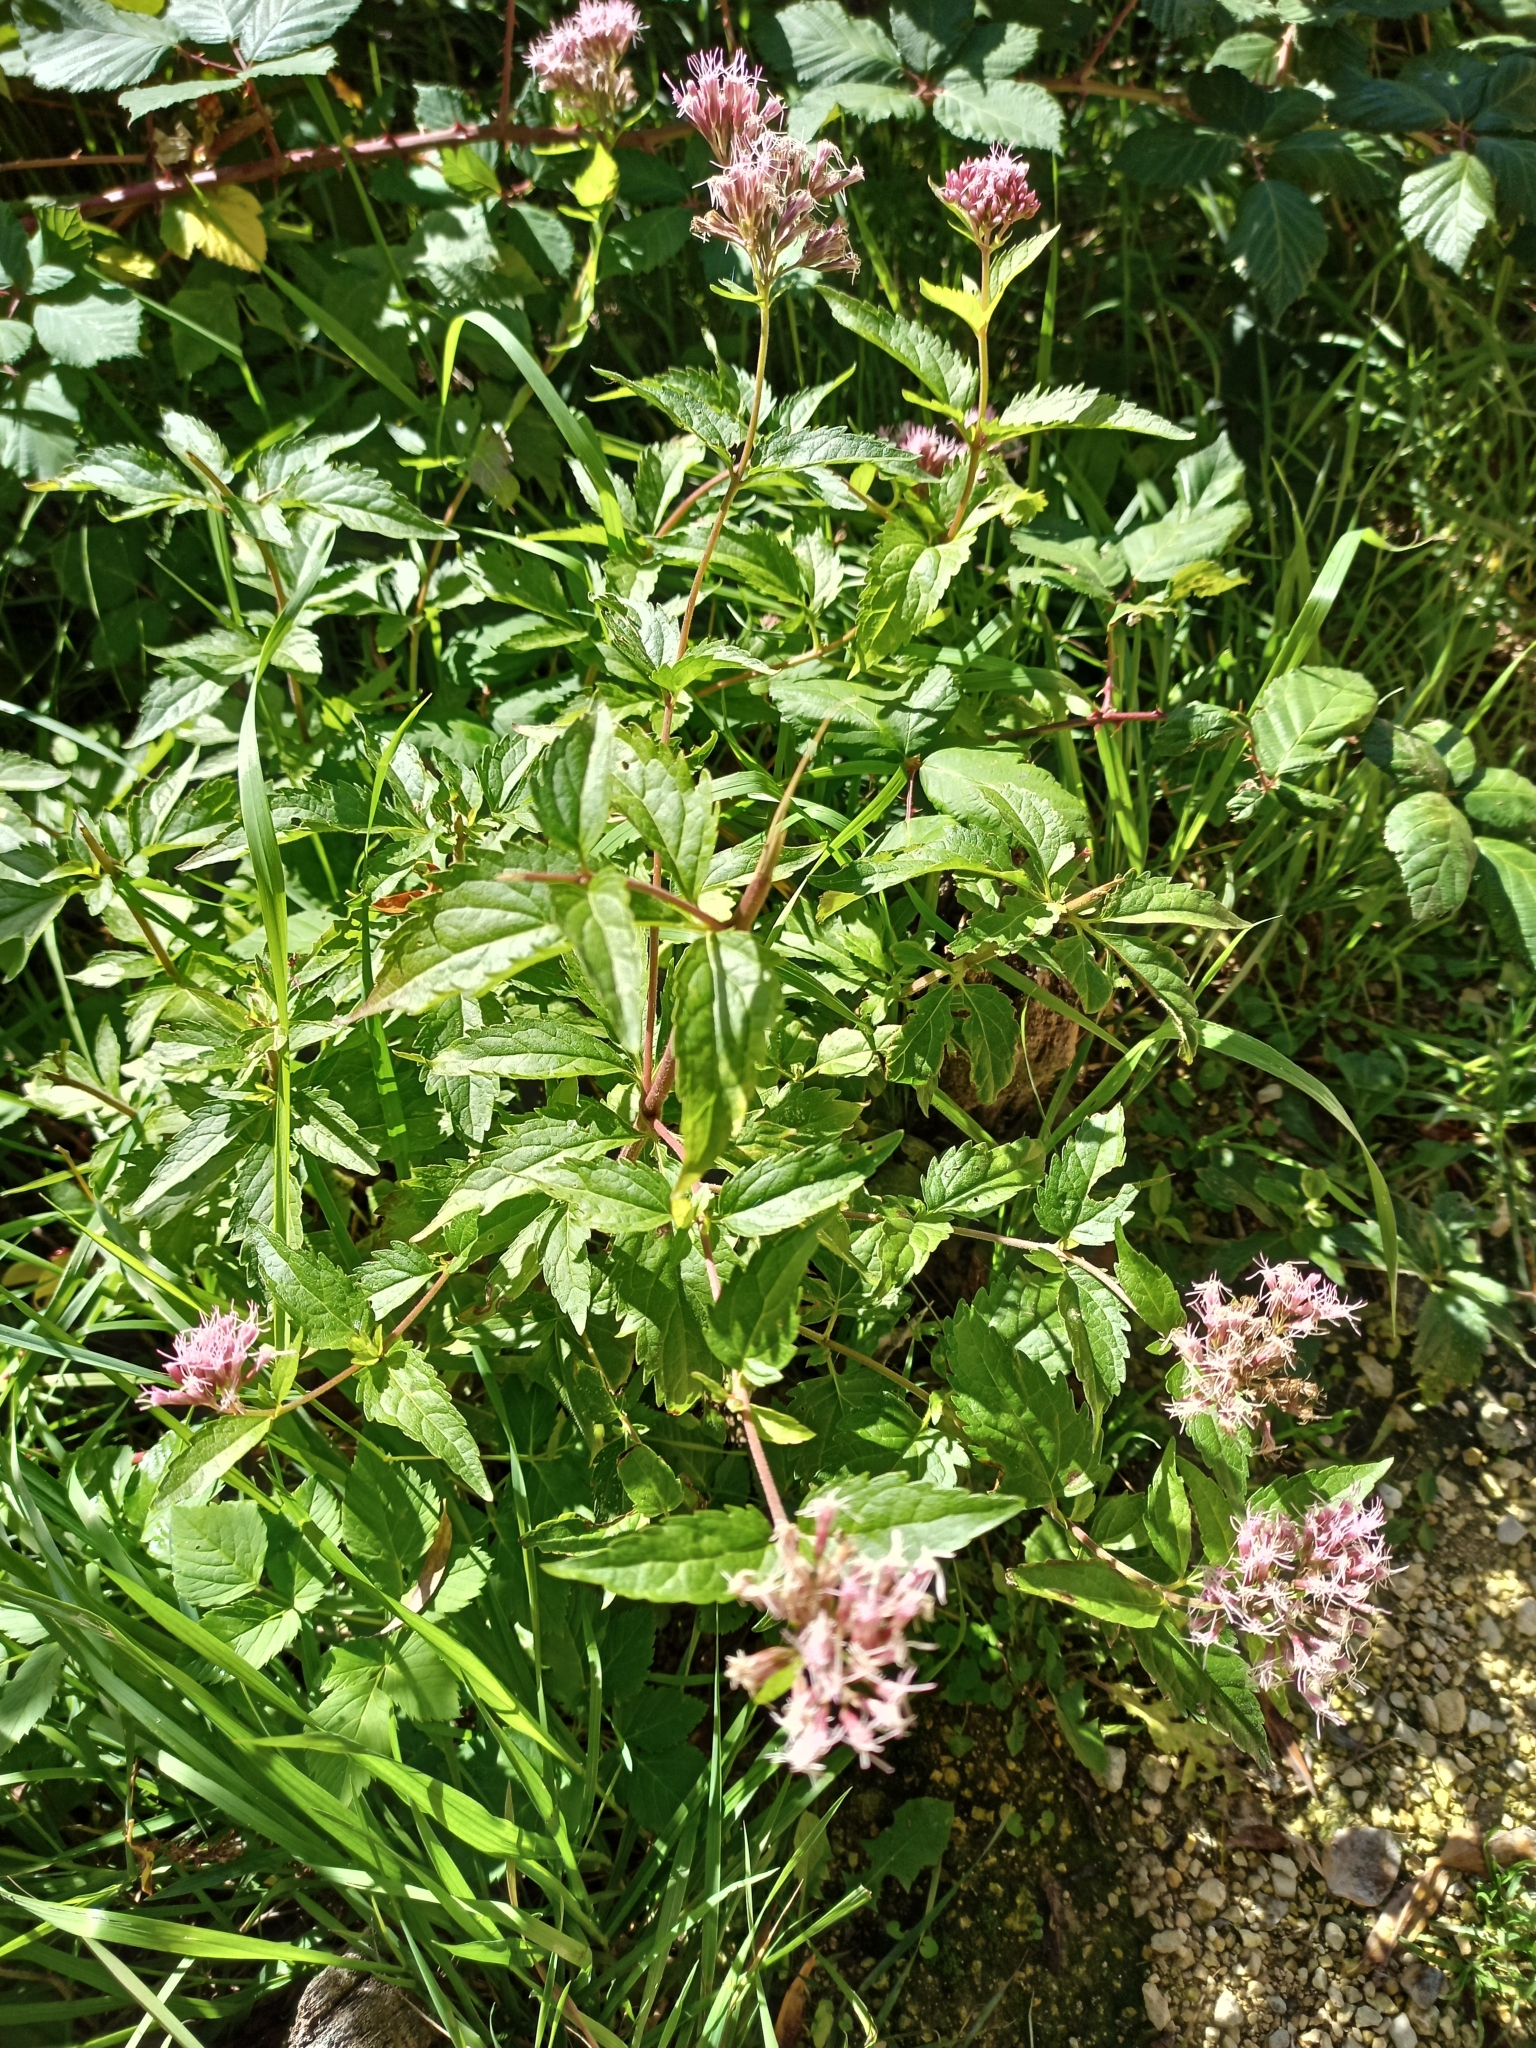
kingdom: Plantae
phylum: Tracheophyta
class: Magnoliopsida
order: Asterales
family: Asteraceae
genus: Eupatorium
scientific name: Eupatorium cannabinum
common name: Hemp-agrimony
